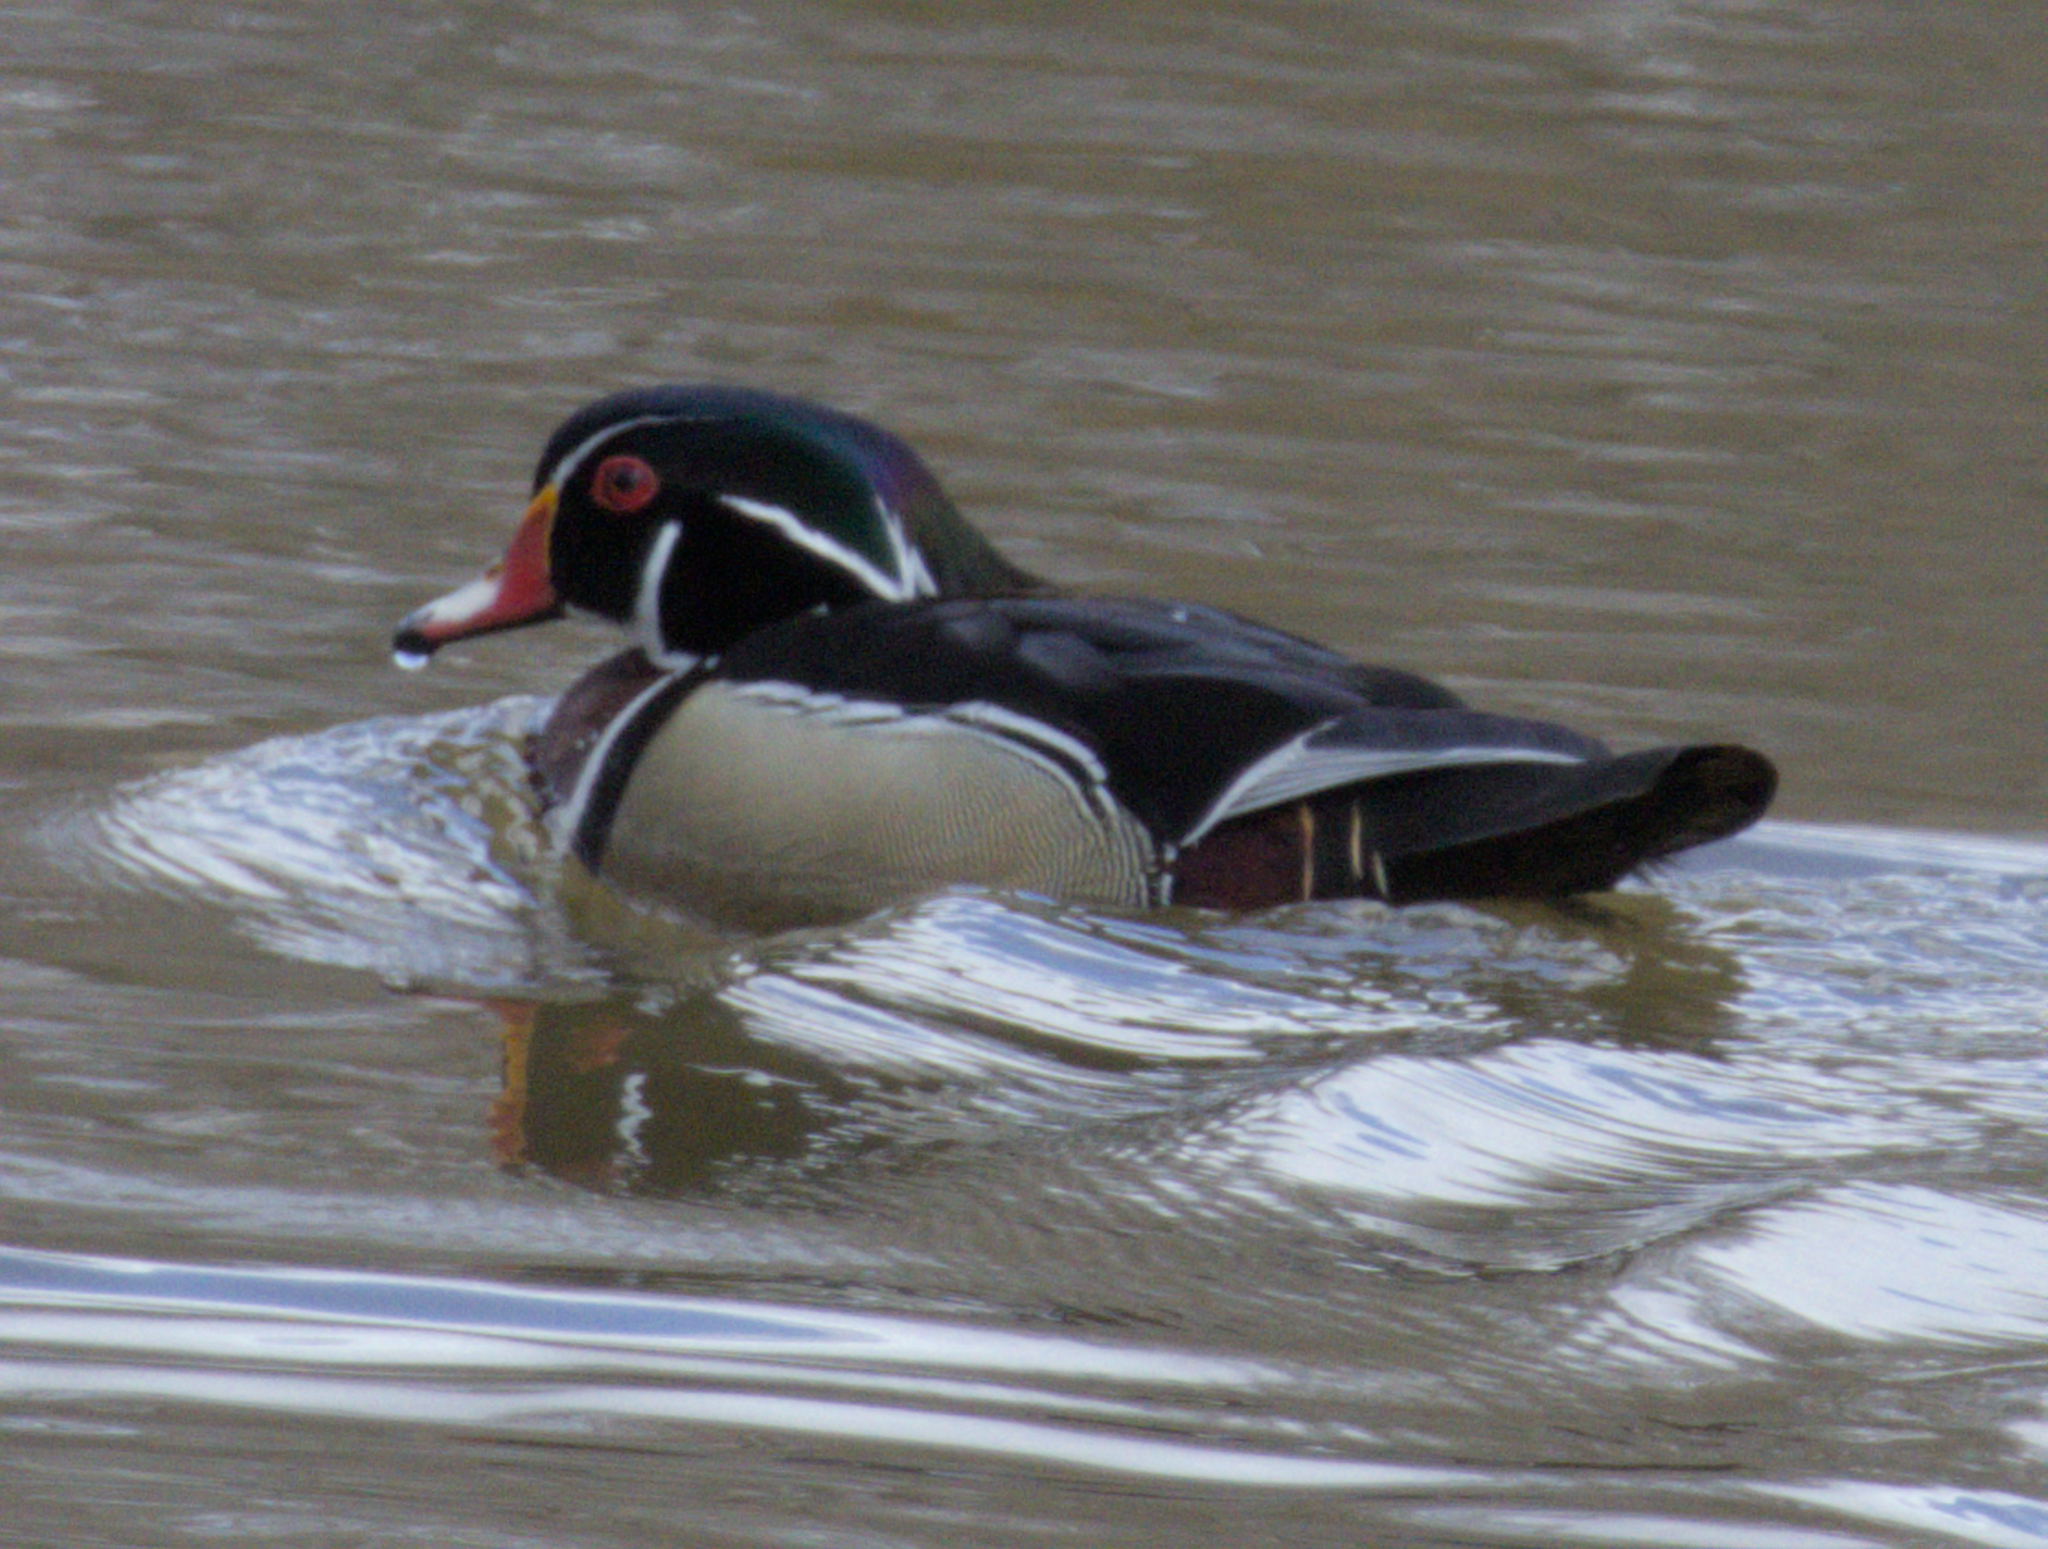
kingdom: Animalia
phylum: Chordata
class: Aves
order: Anseriformes
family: Anatidae
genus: Aix
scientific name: Aix sponsa
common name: Wood duck
